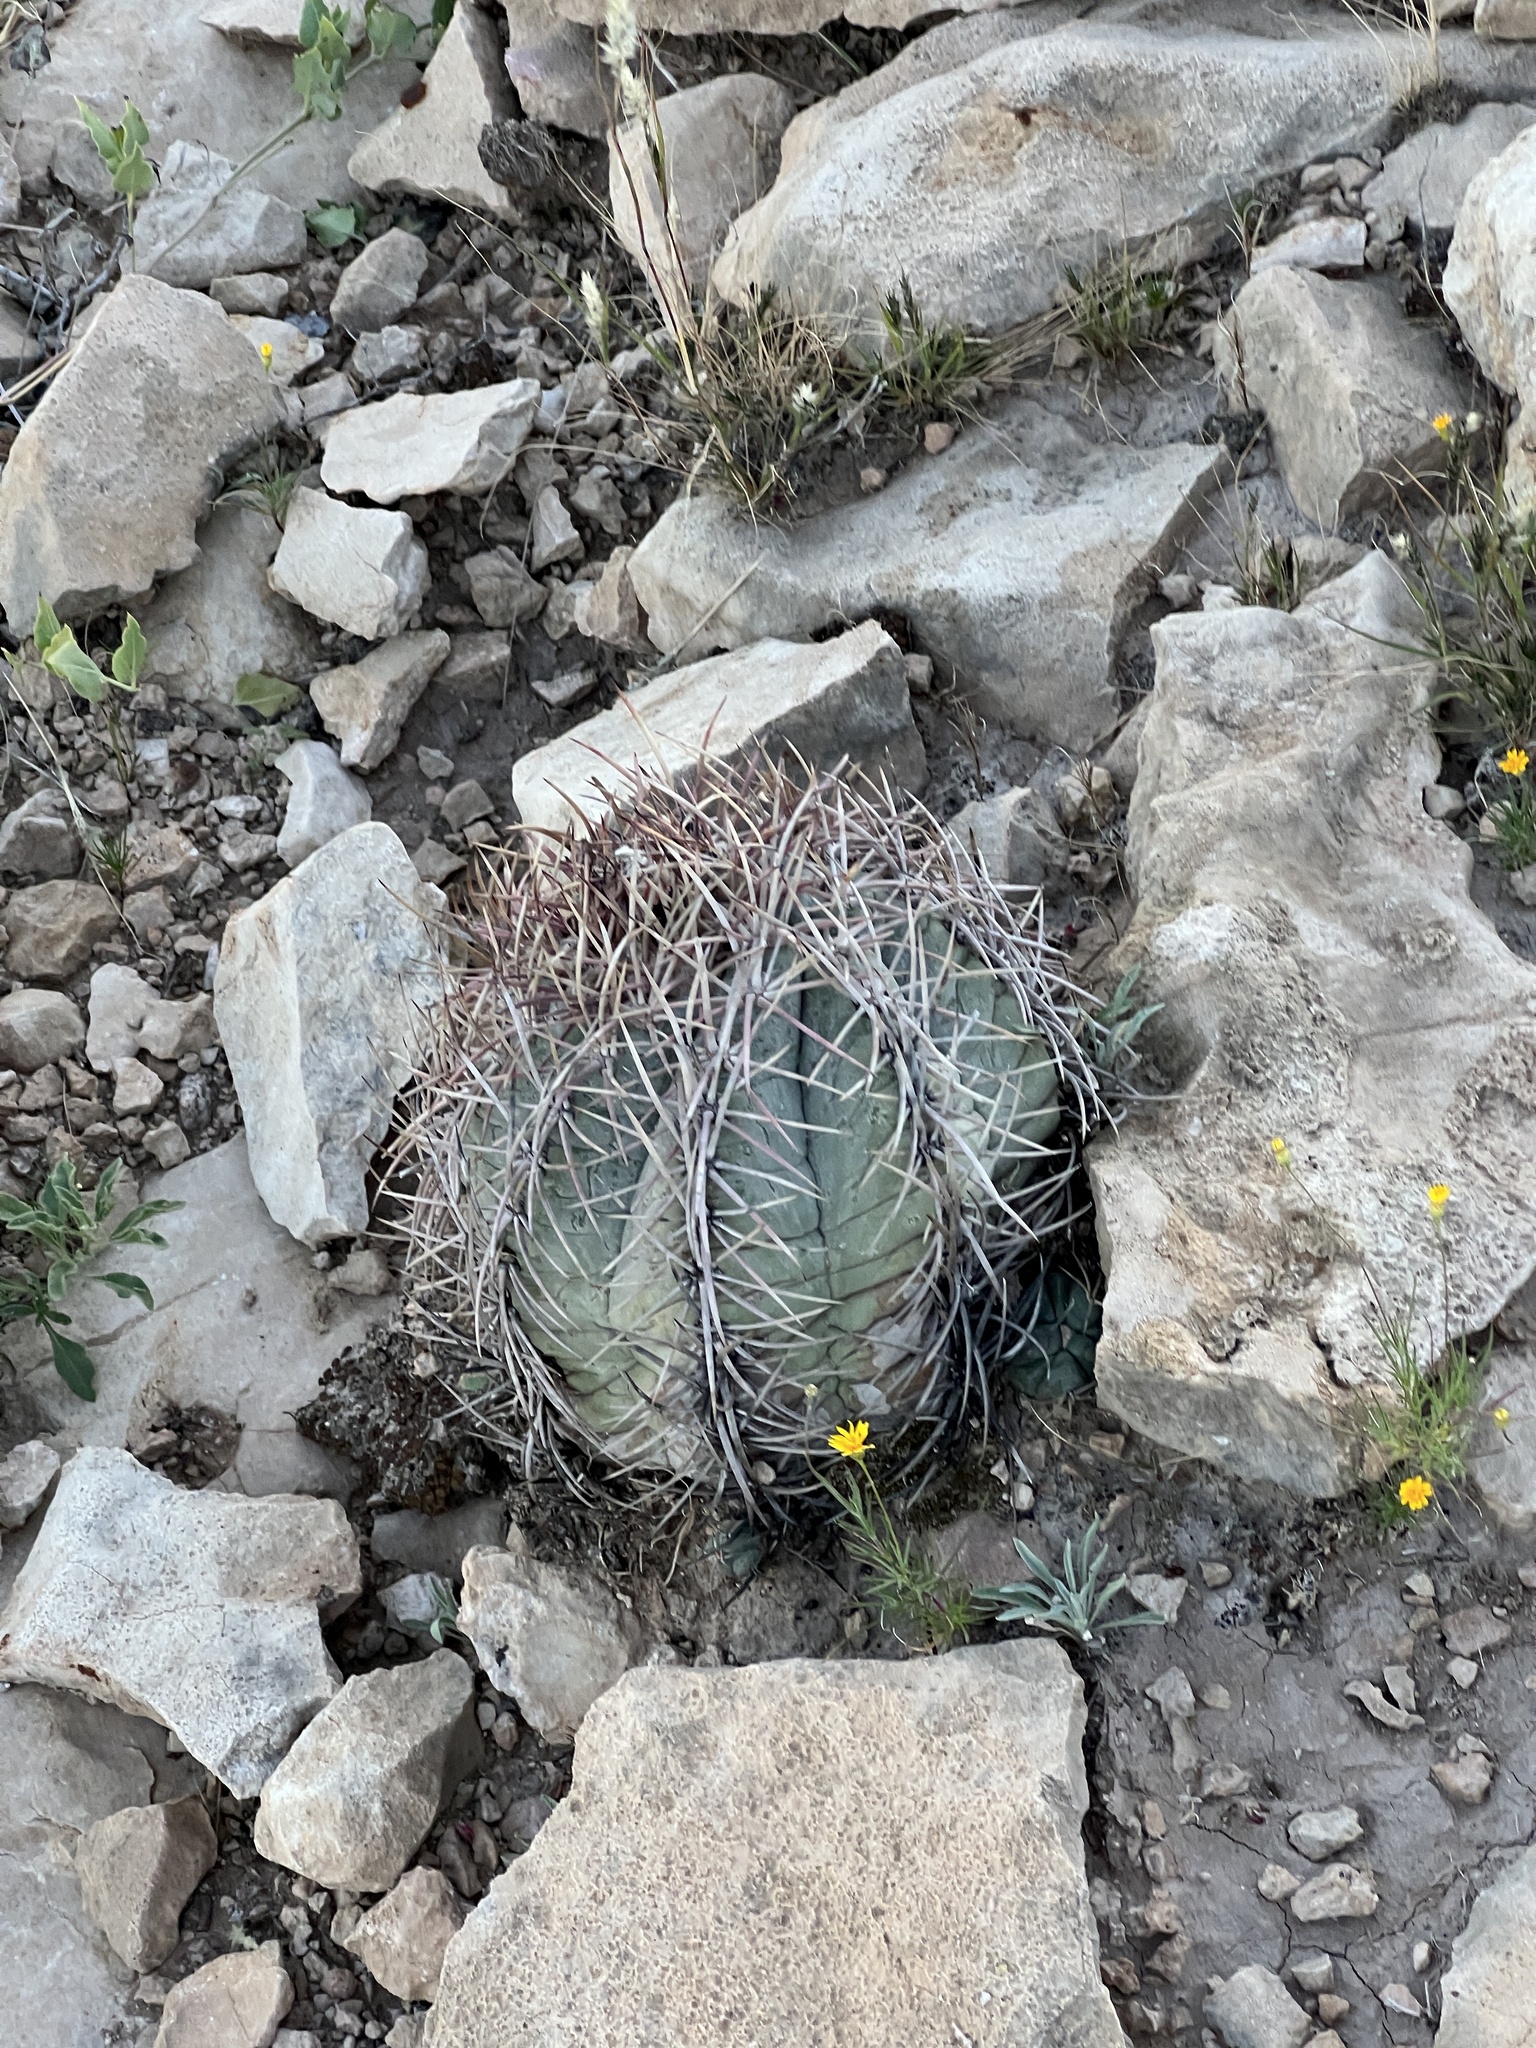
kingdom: Plantae
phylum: Tracheophyta
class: Magnoliopsida
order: Caryophyllales
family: Cactaceae
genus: Echinocactus
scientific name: Echinocactus horizonthalonius
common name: Devilshead
